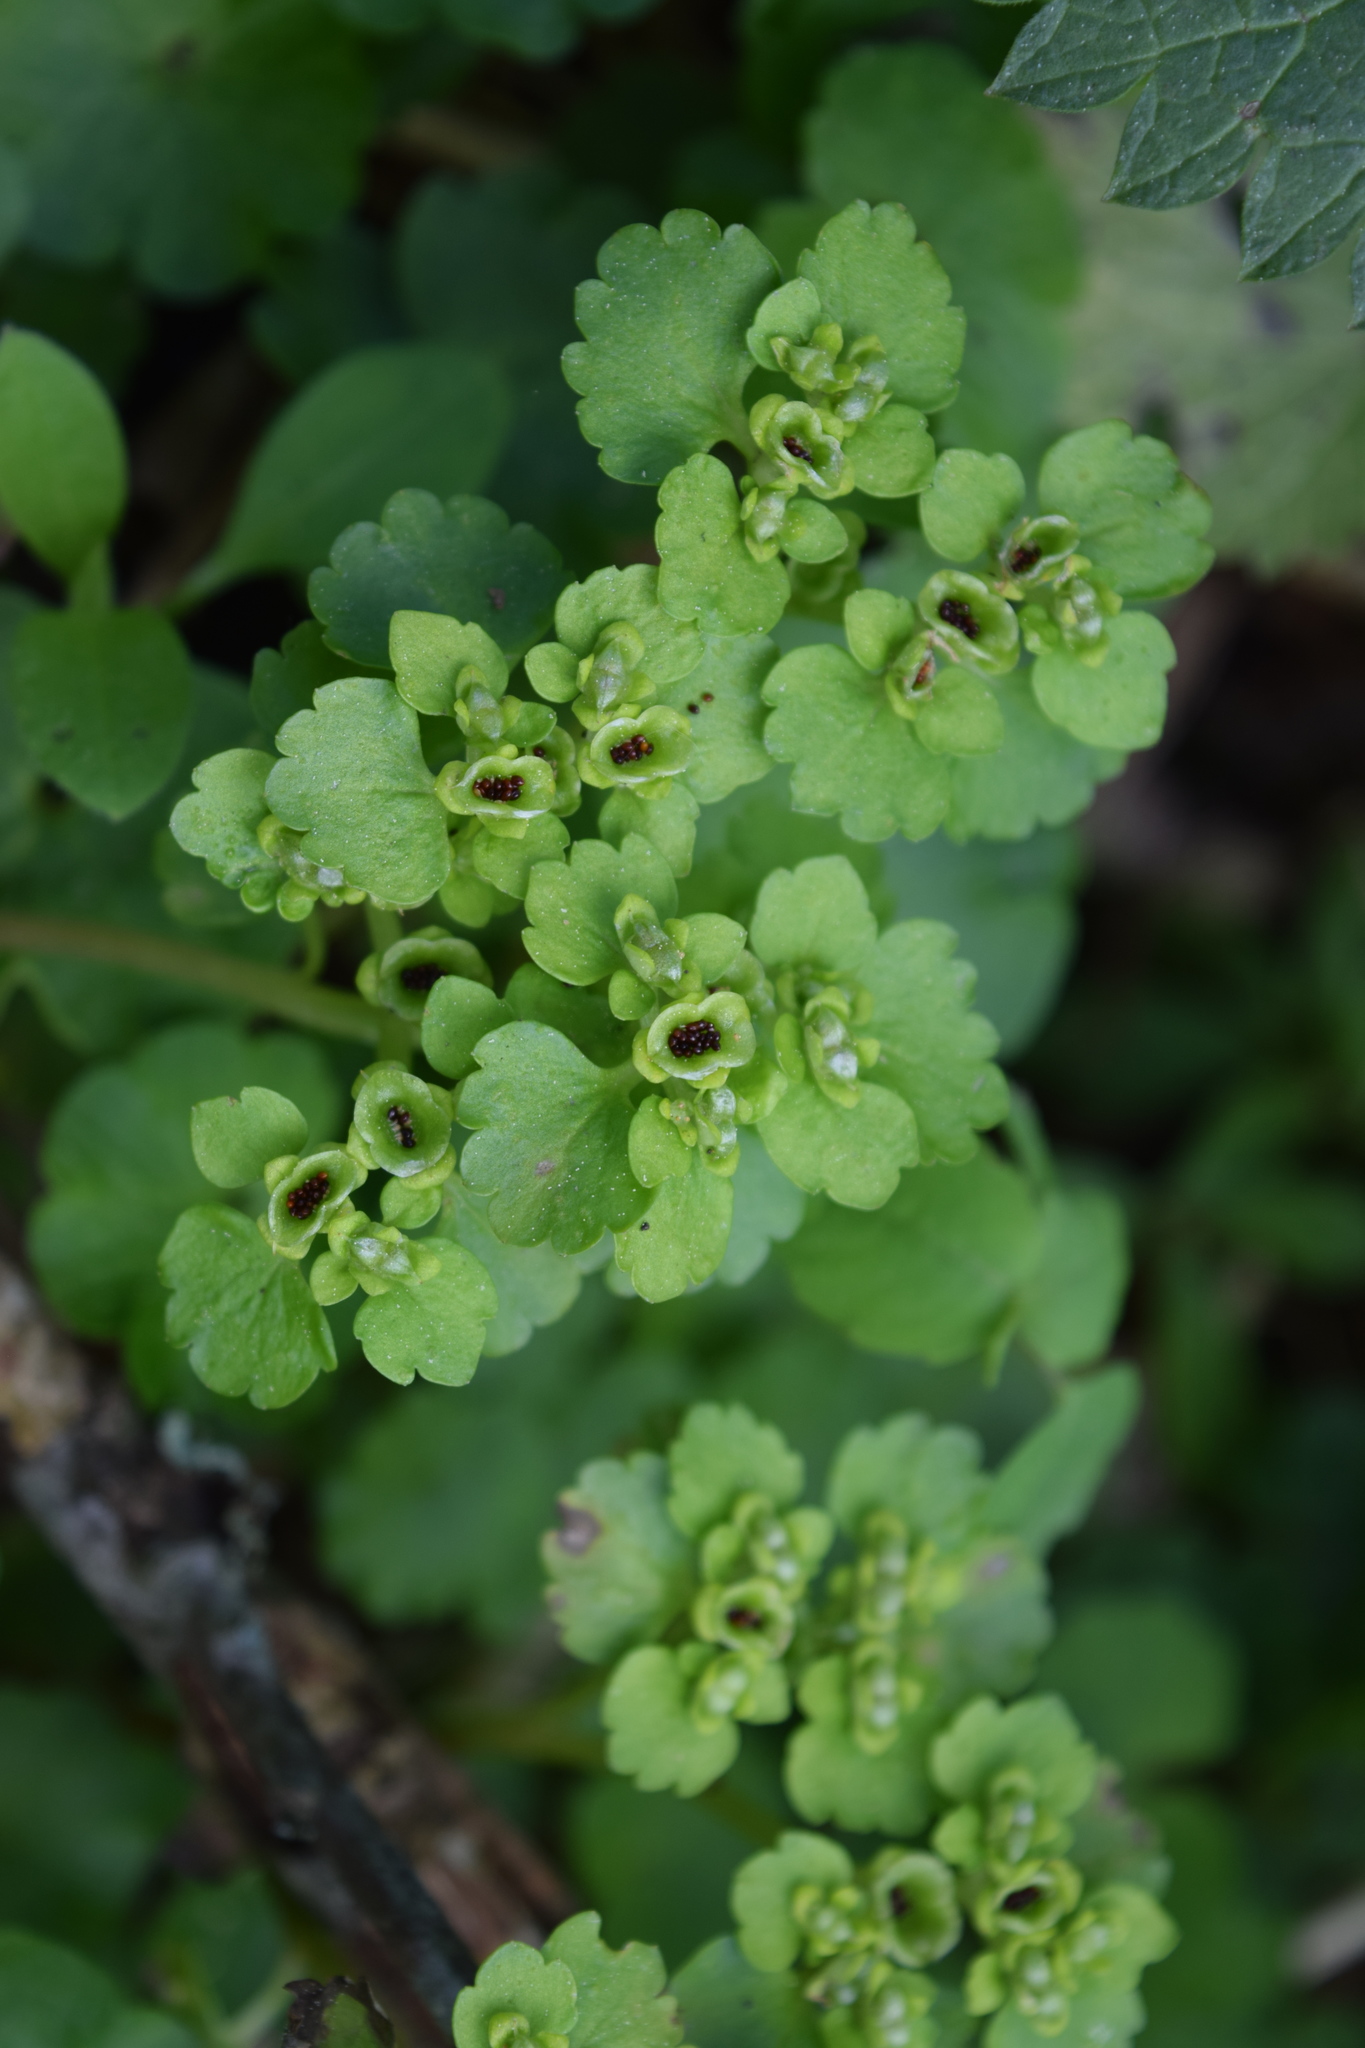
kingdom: Plantae
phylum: Tracheophyta
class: Magnoliopsida
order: Saxifragales
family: Saxifragaceae
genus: Chrysosplenium
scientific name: Chrysosplenium alternifolium
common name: Alternate-leaved golden-saxifrage
